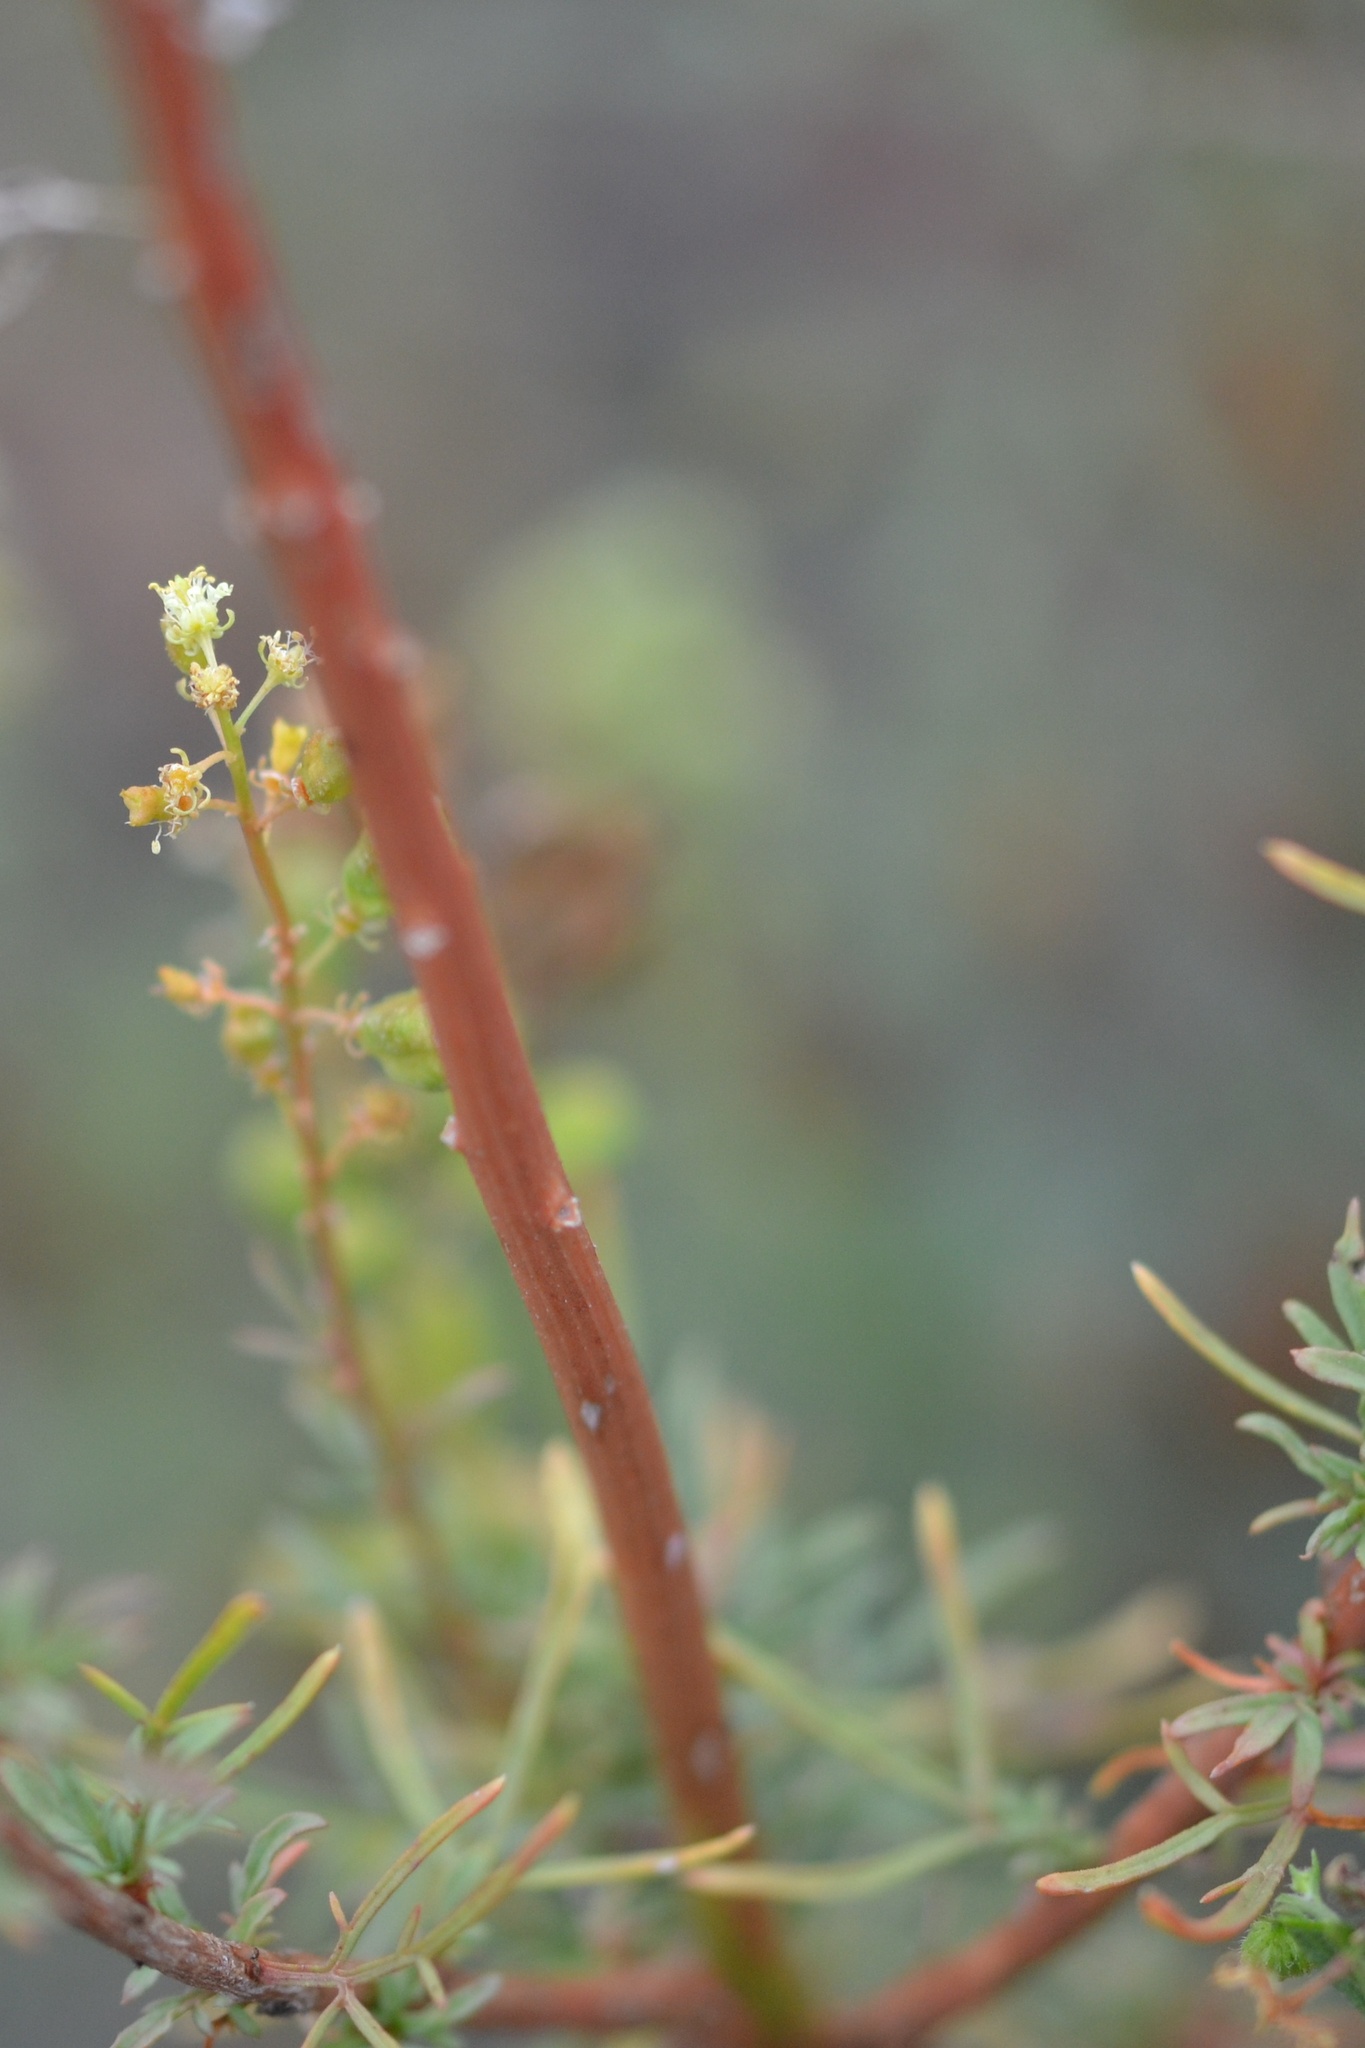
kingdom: Plantae
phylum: Tracheophyta
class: Magnoliopsida
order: Brassicales
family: Resedaceae
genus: Reseda
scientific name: Reseda lutea
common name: Wild mignonette
